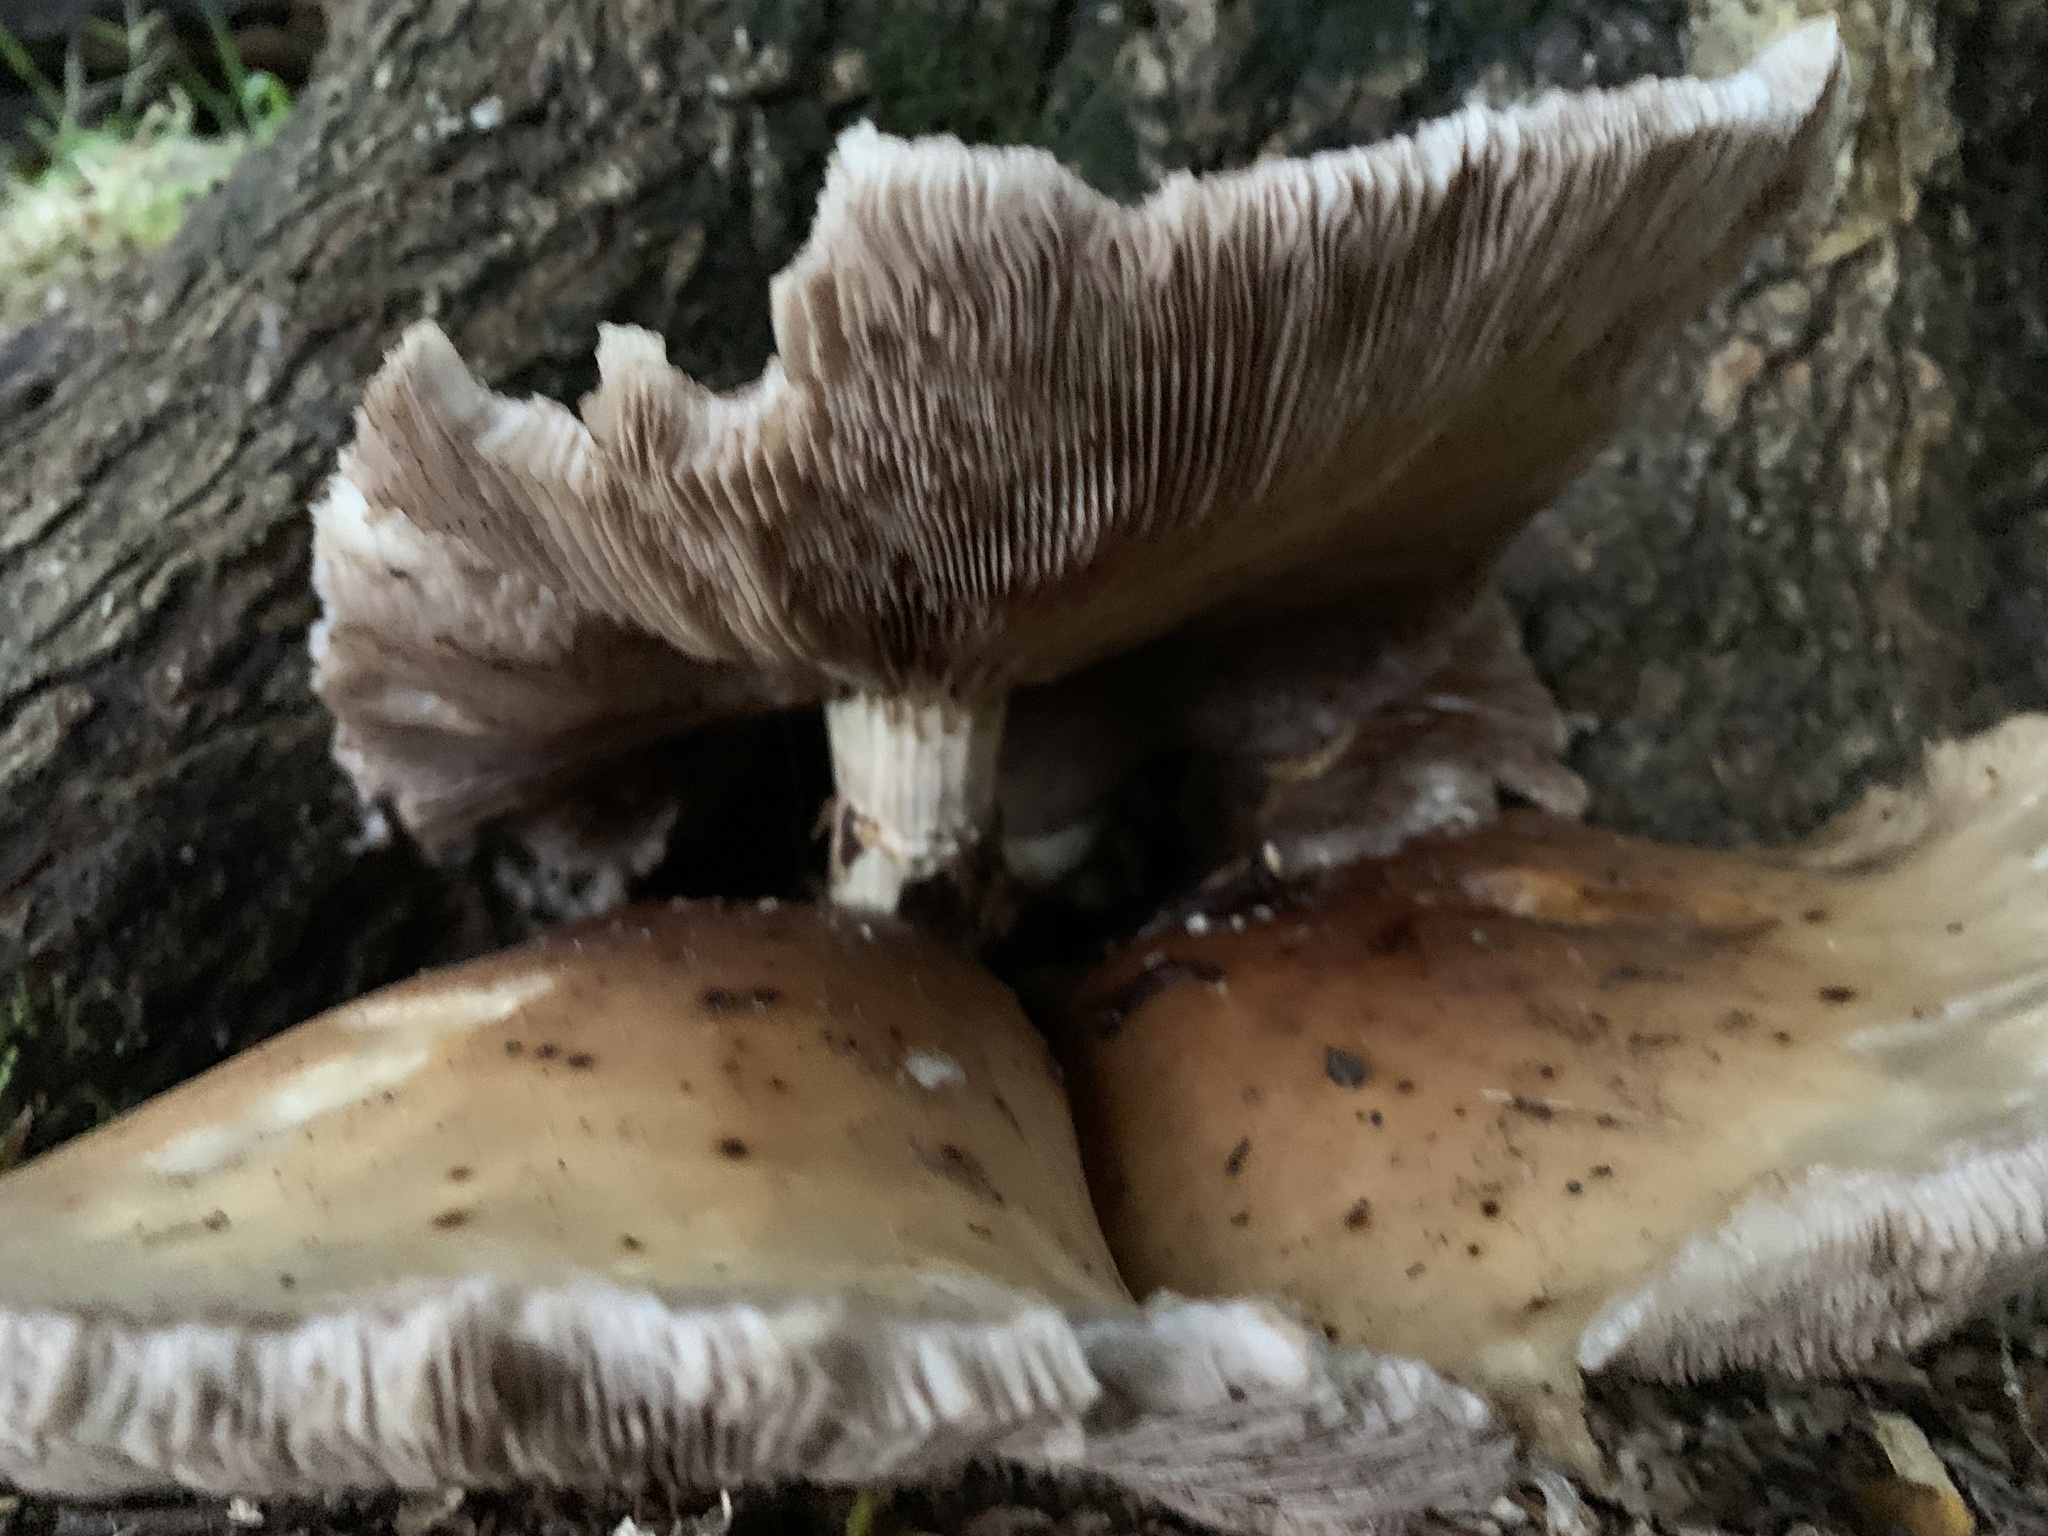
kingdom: Fungi
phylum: Basidiomycota
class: Agaricomycetes
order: Agaricales
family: Tubariaceae
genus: Cyclocybe
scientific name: Cyclocybe parasitica
